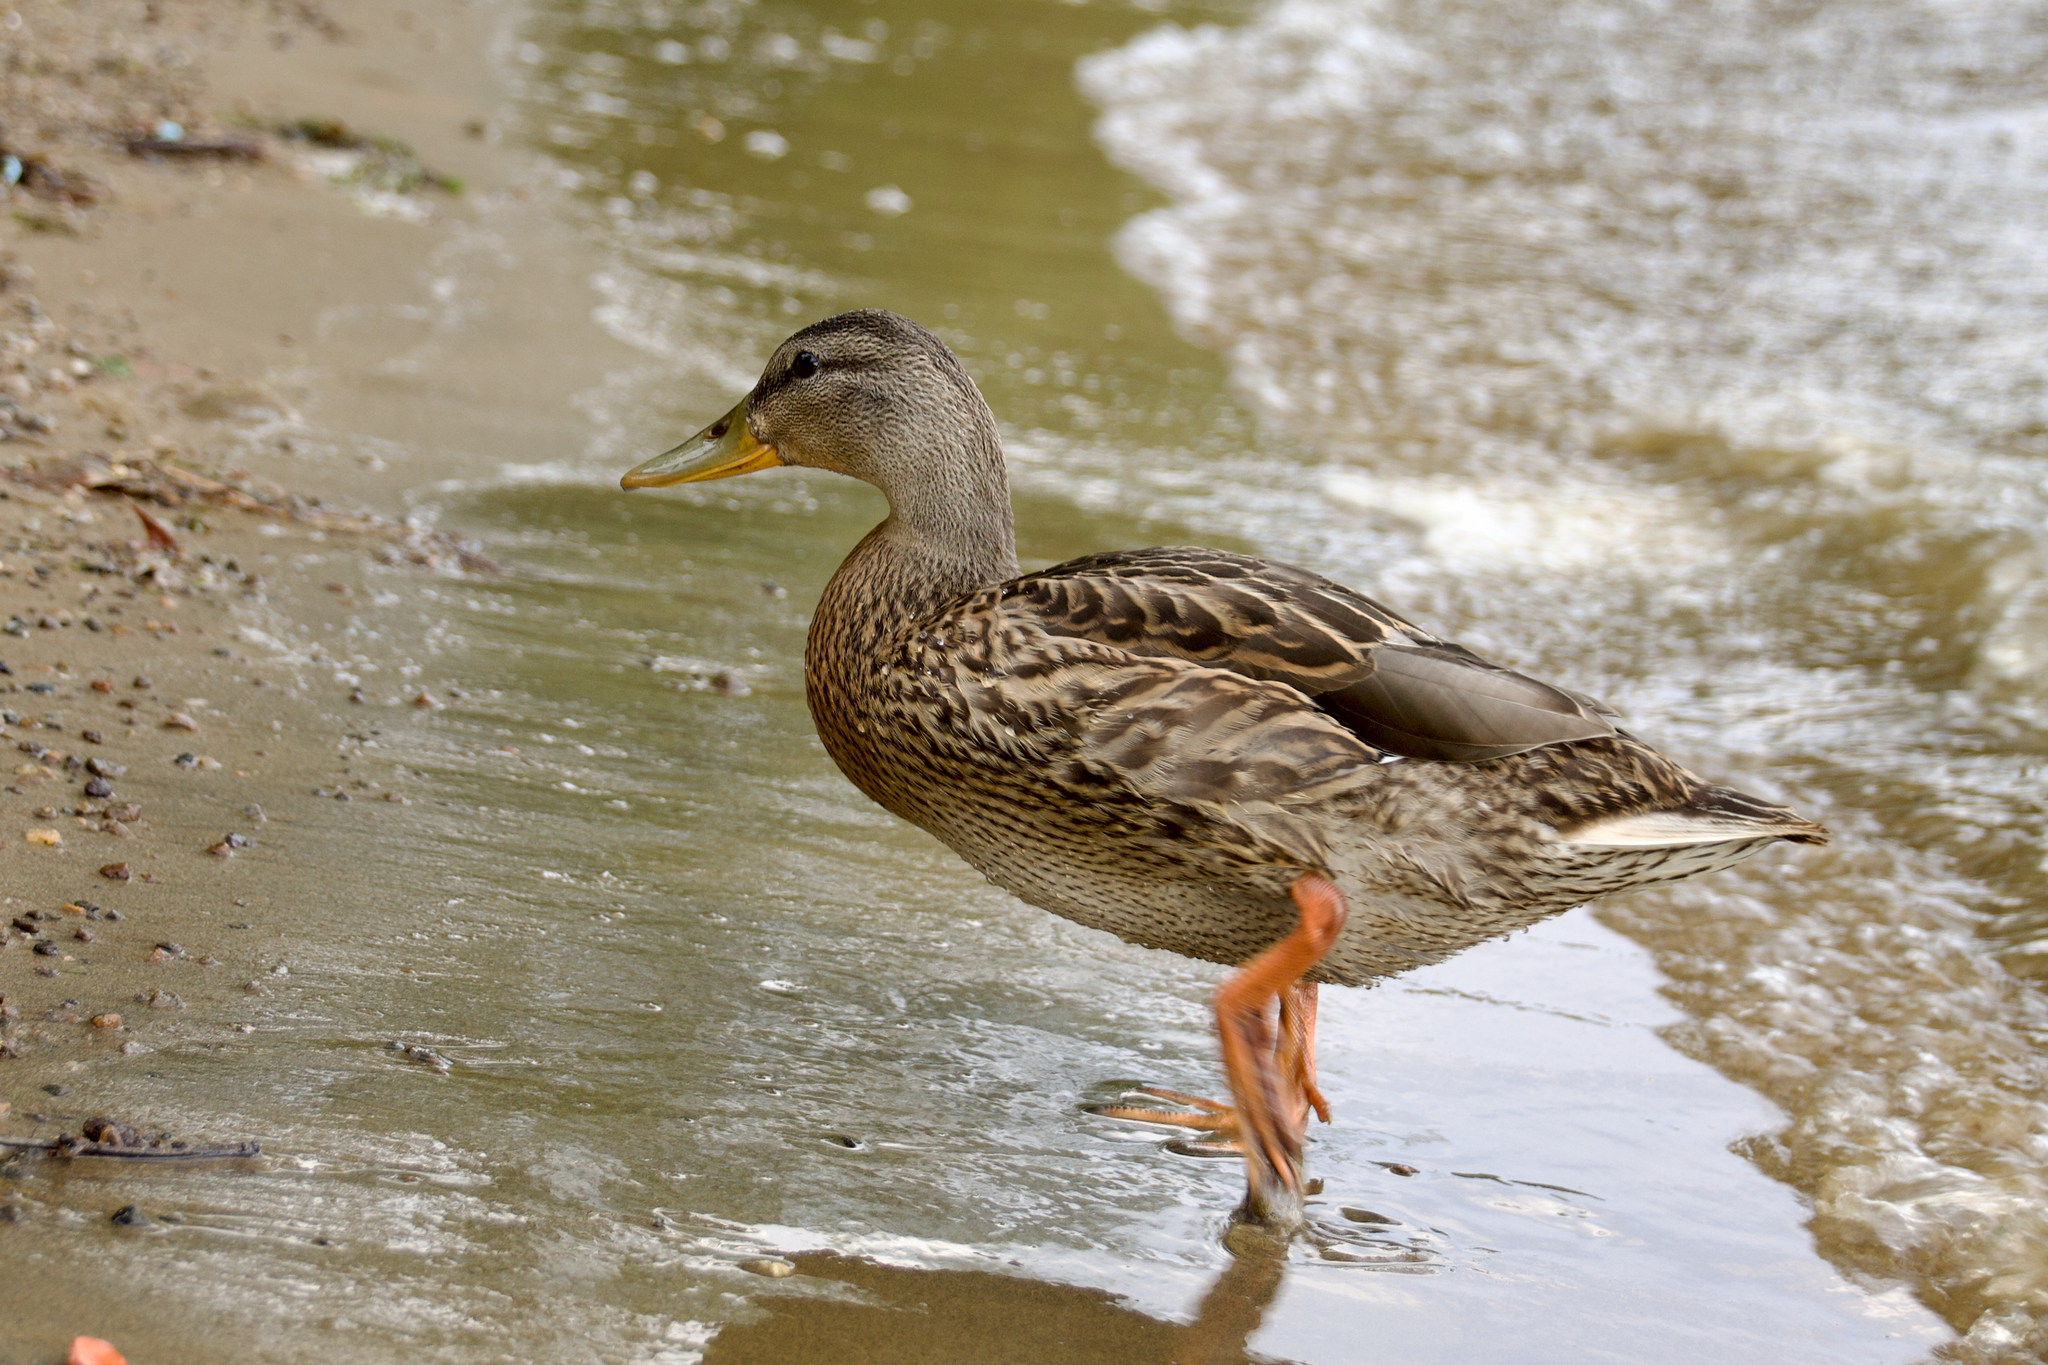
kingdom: Animalia
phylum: Chordata
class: Aves
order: Anseriformes
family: Anatidae
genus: Anas
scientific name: Anas platyrhynchos
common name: Mallard
